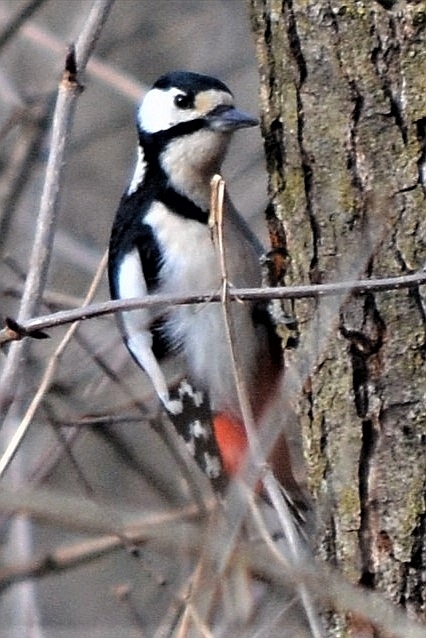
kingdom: Animalia
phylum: Chordata
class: Aves
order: Piciformes
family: Picidae
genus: Dendrocopos
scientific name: Dendrocopos major
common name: Great spotted woodpecker
